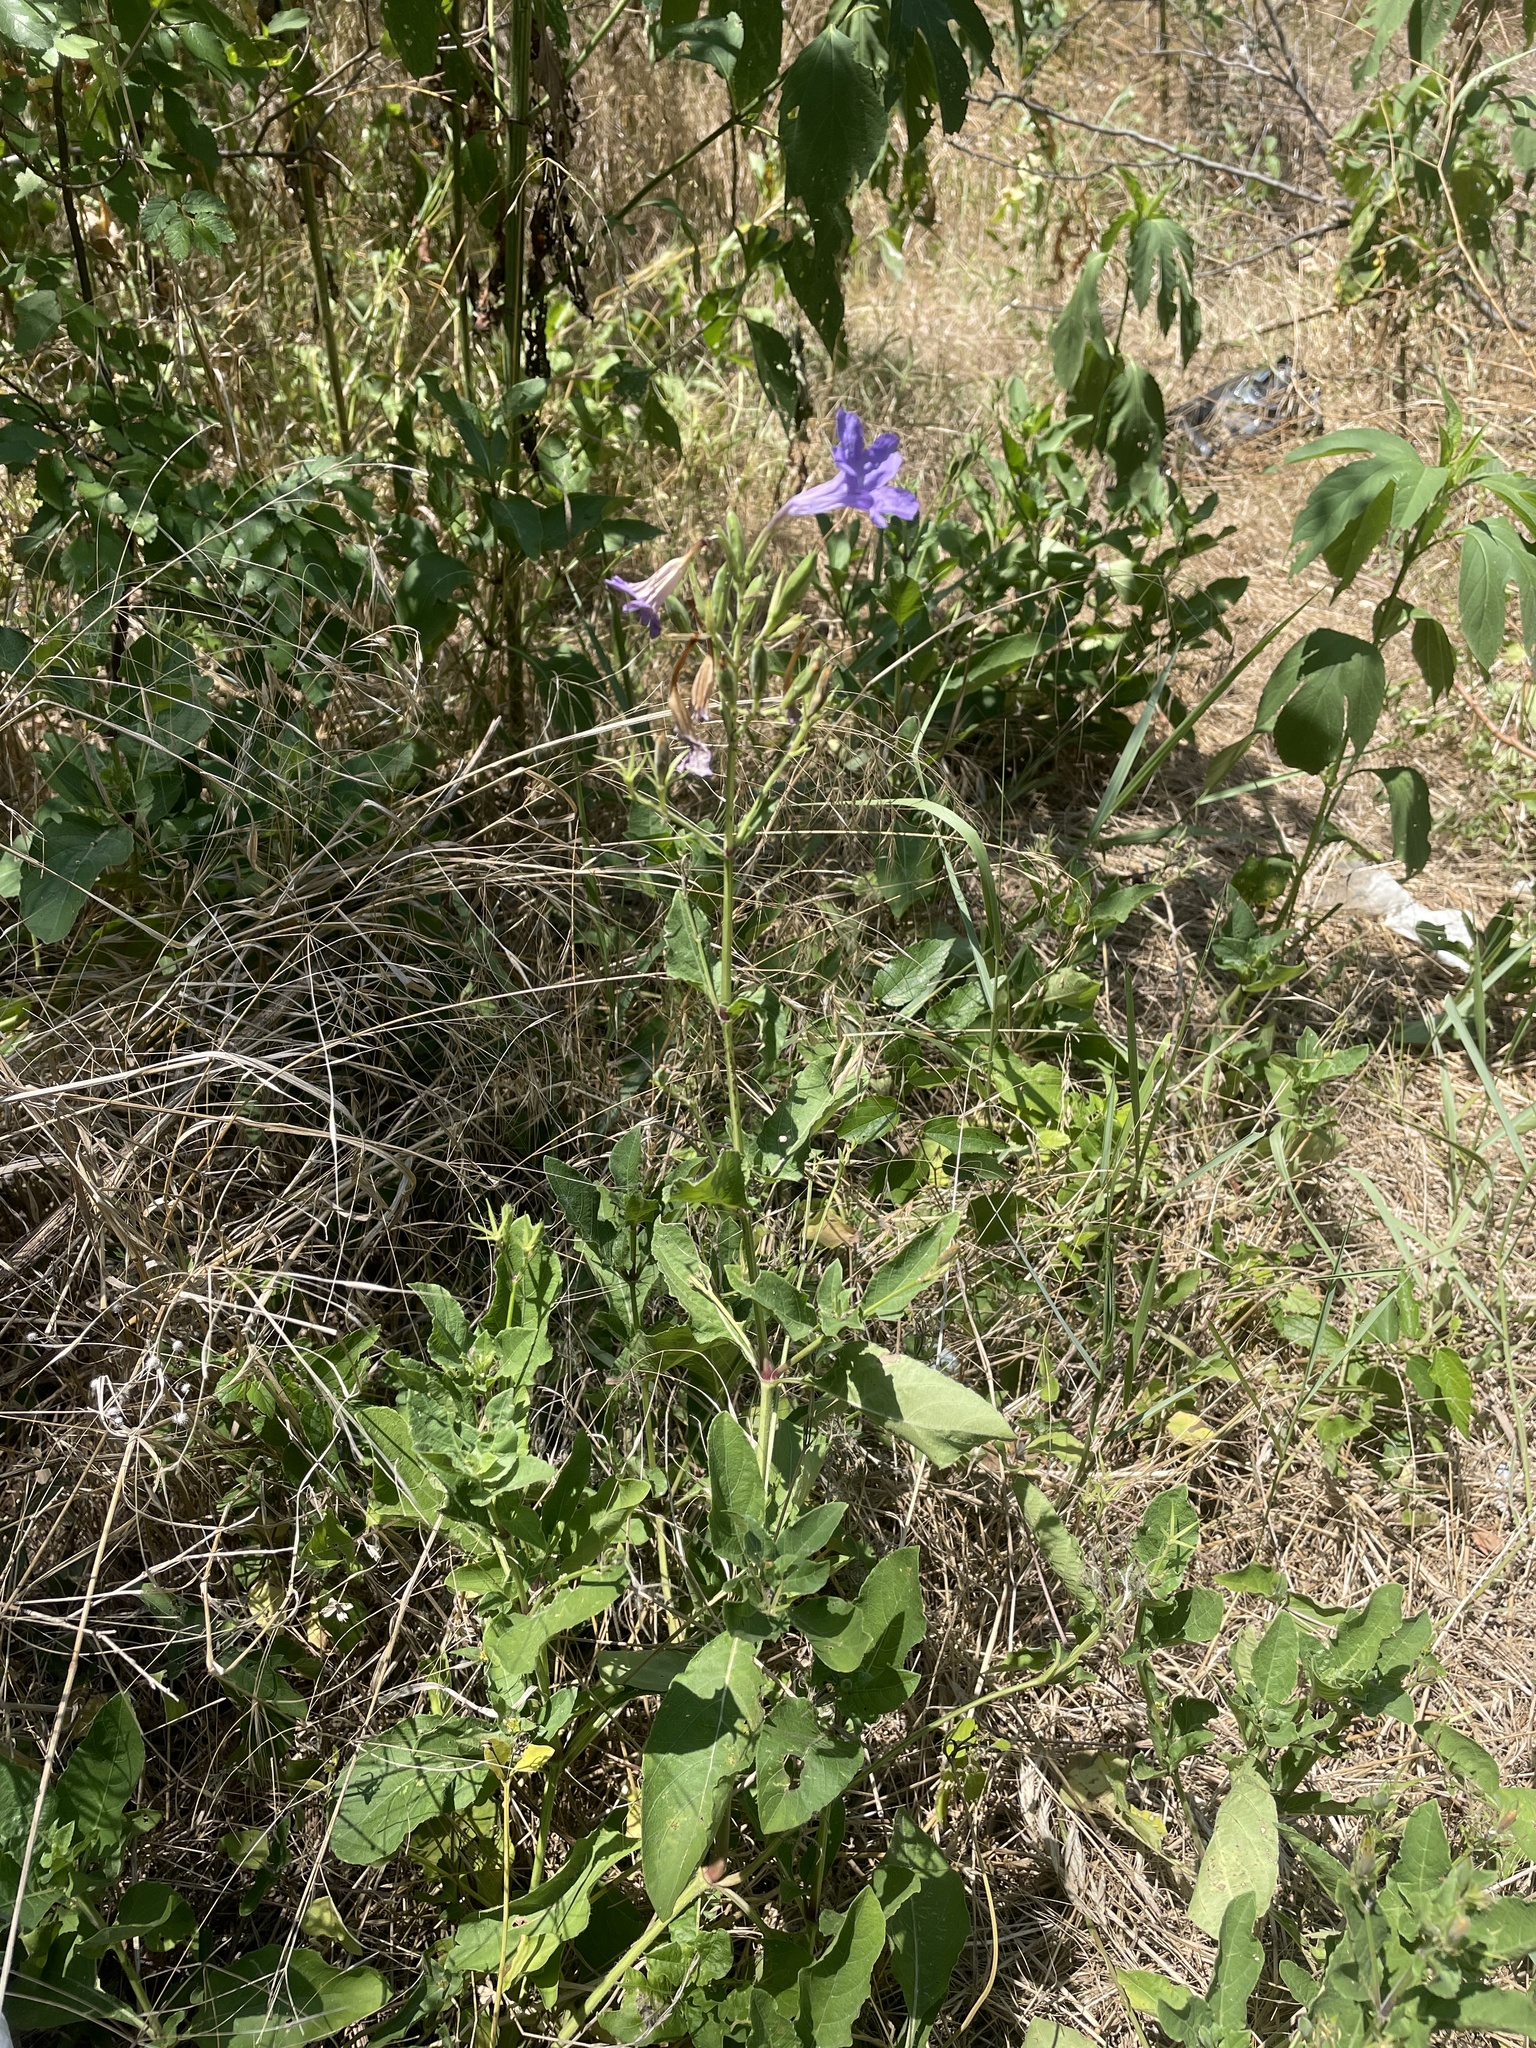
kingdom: Plantae
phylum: Tracheophyta
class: Magnoliopsida
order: Lamiales
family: Acanthaceae
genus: Ruellia
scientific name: Ruellia ciliatiflora
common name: Hairyflower wild petunia
